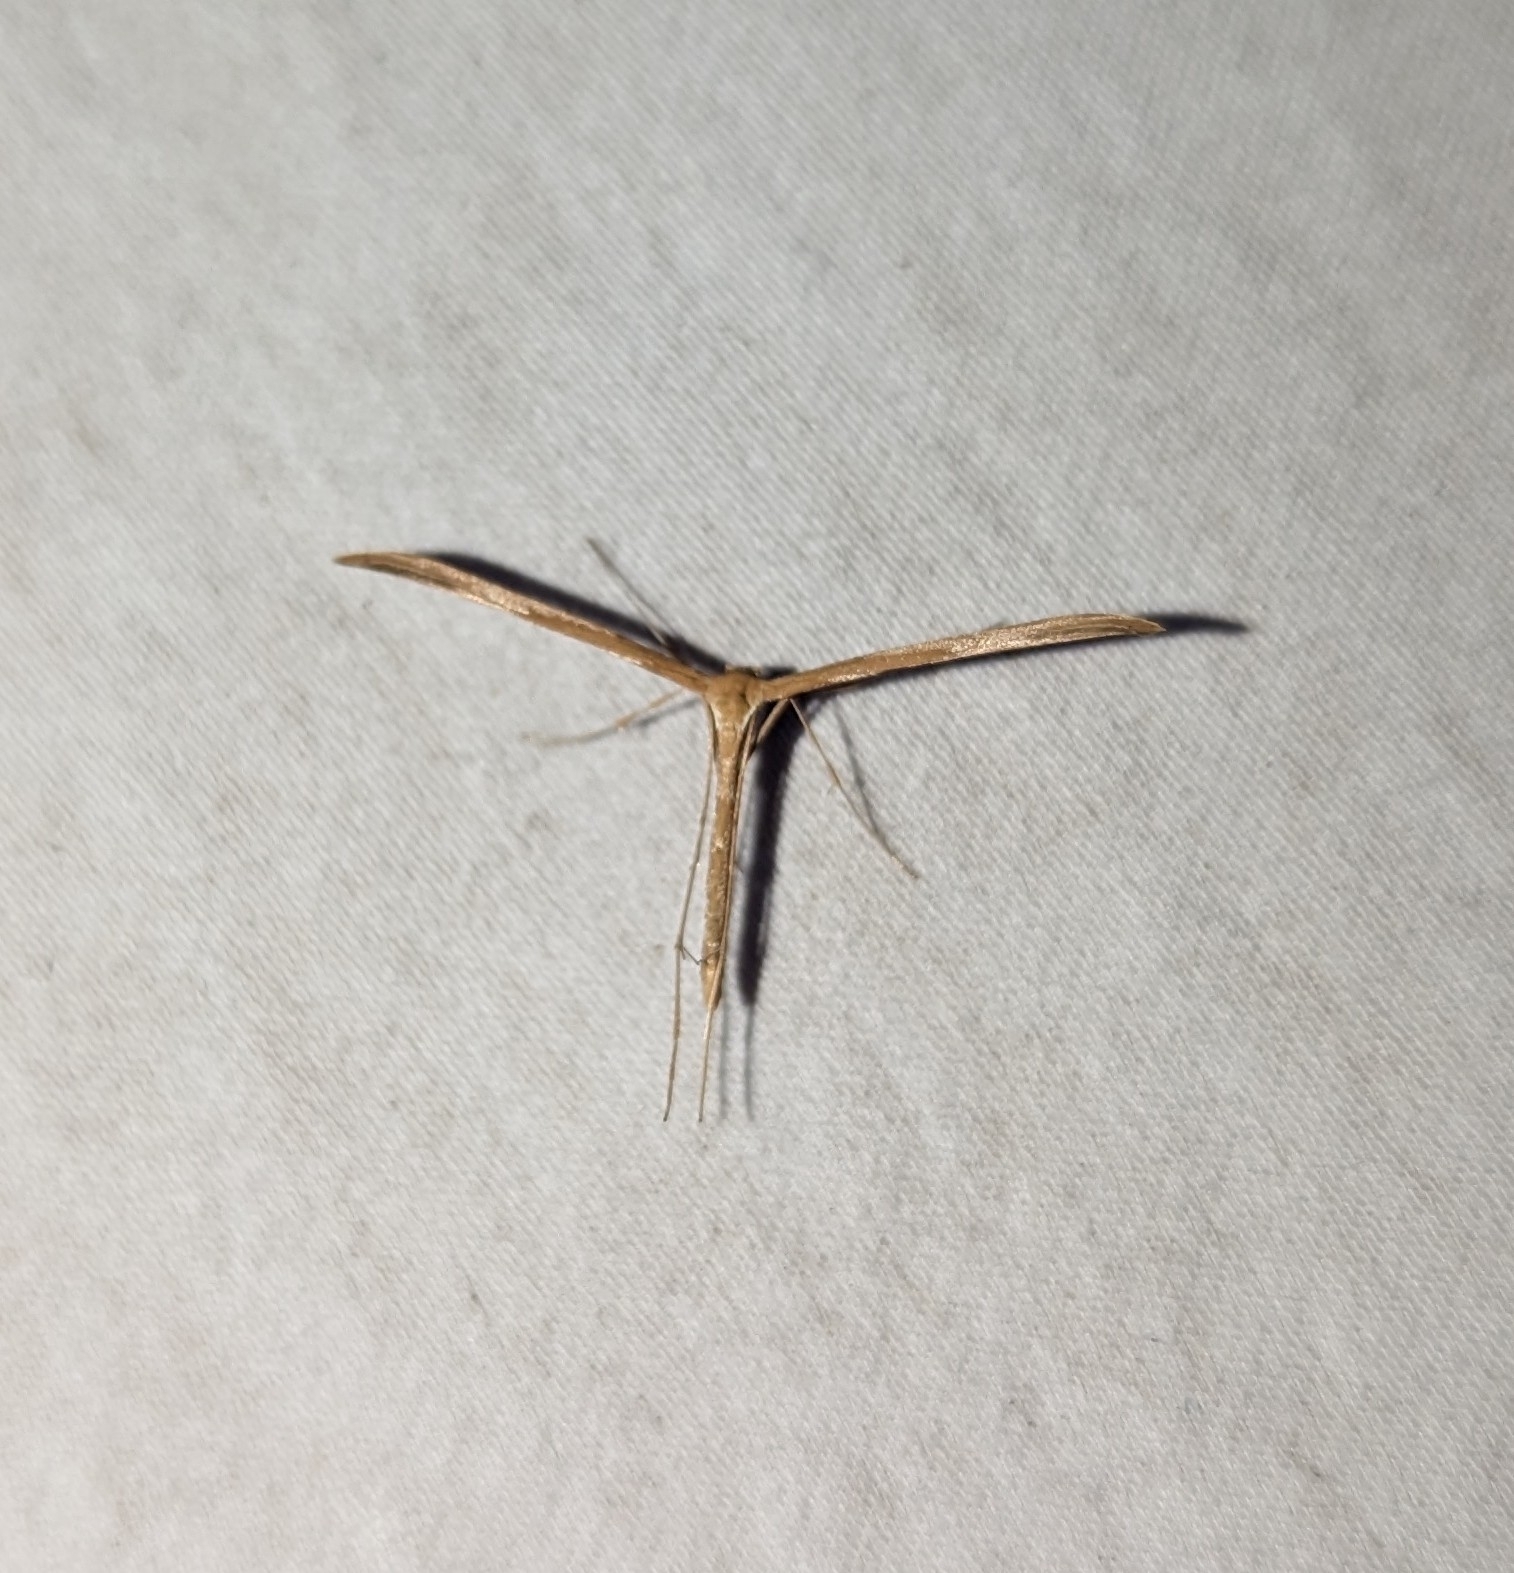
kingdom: Animalia
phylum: Arthropoda
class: Insecta
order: Lepidoptera
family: Pterophoridae
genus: Emmelina
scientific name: Emmelina monodactyla
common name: Common plume
